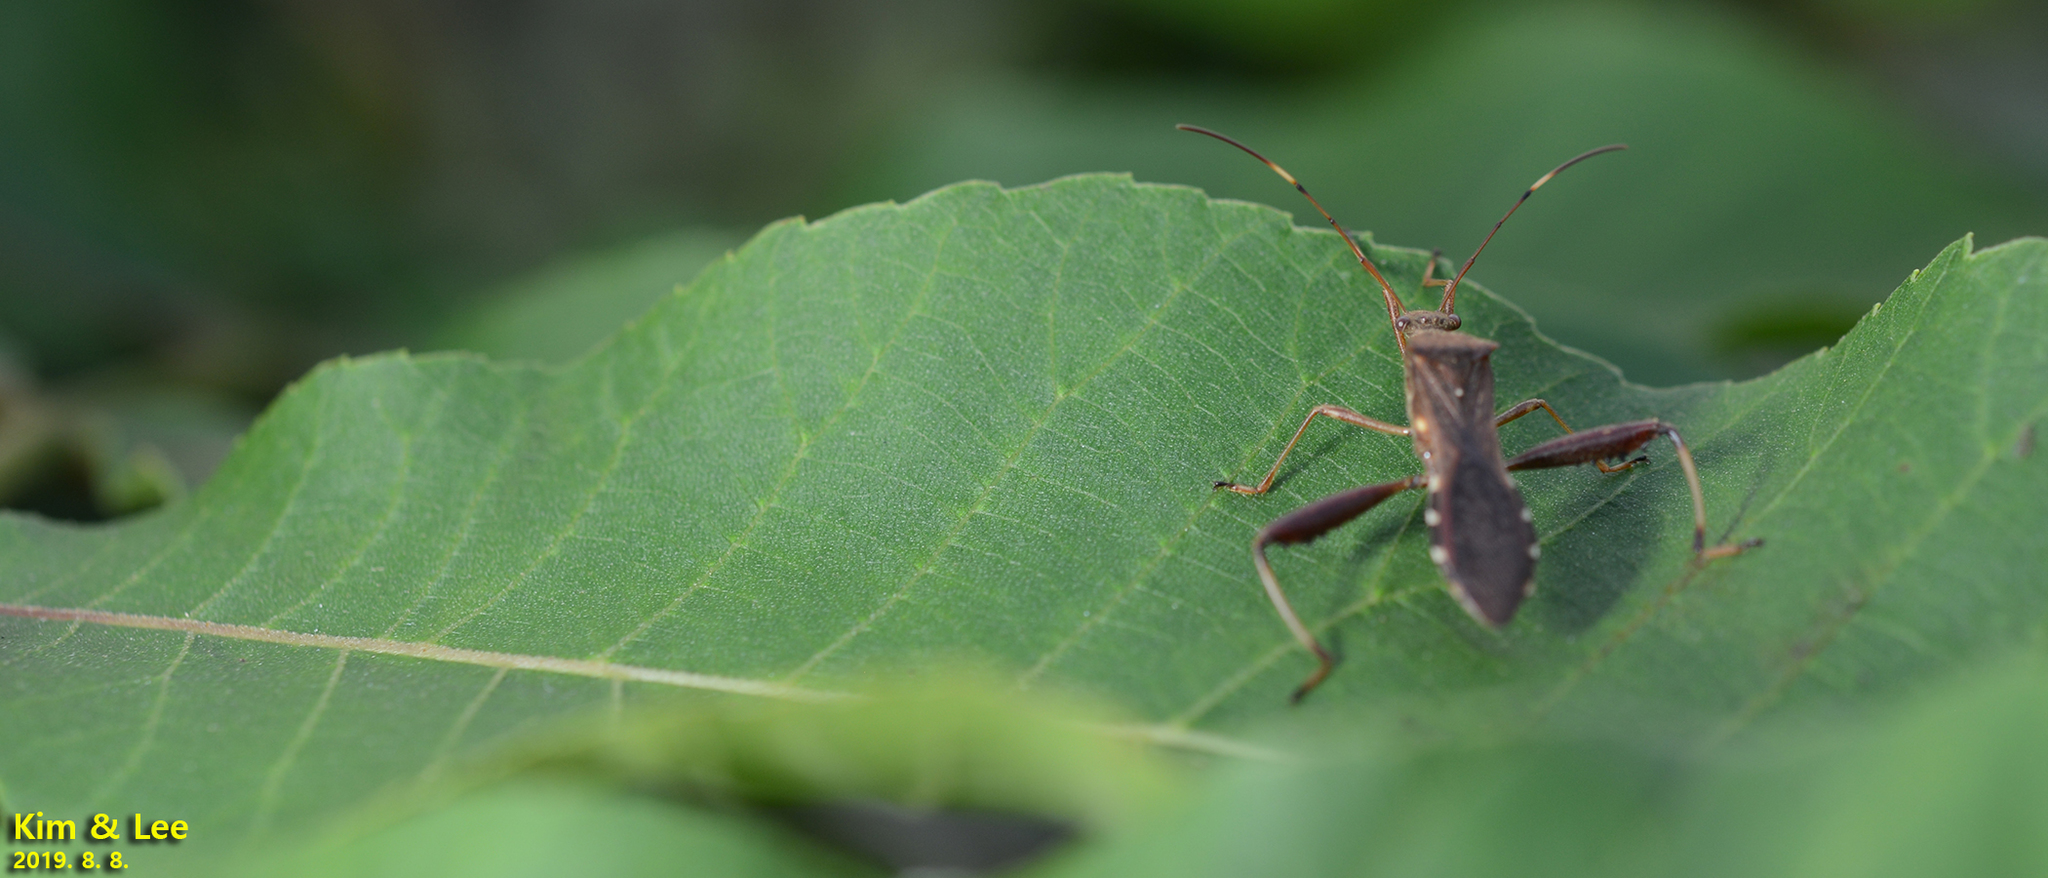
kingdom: Animalia
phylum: Arthropoda
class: Insecta
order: Hemiptera
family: Alydidae
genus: Riptortus
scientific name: Riptortus pedestris
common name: Bean bug
